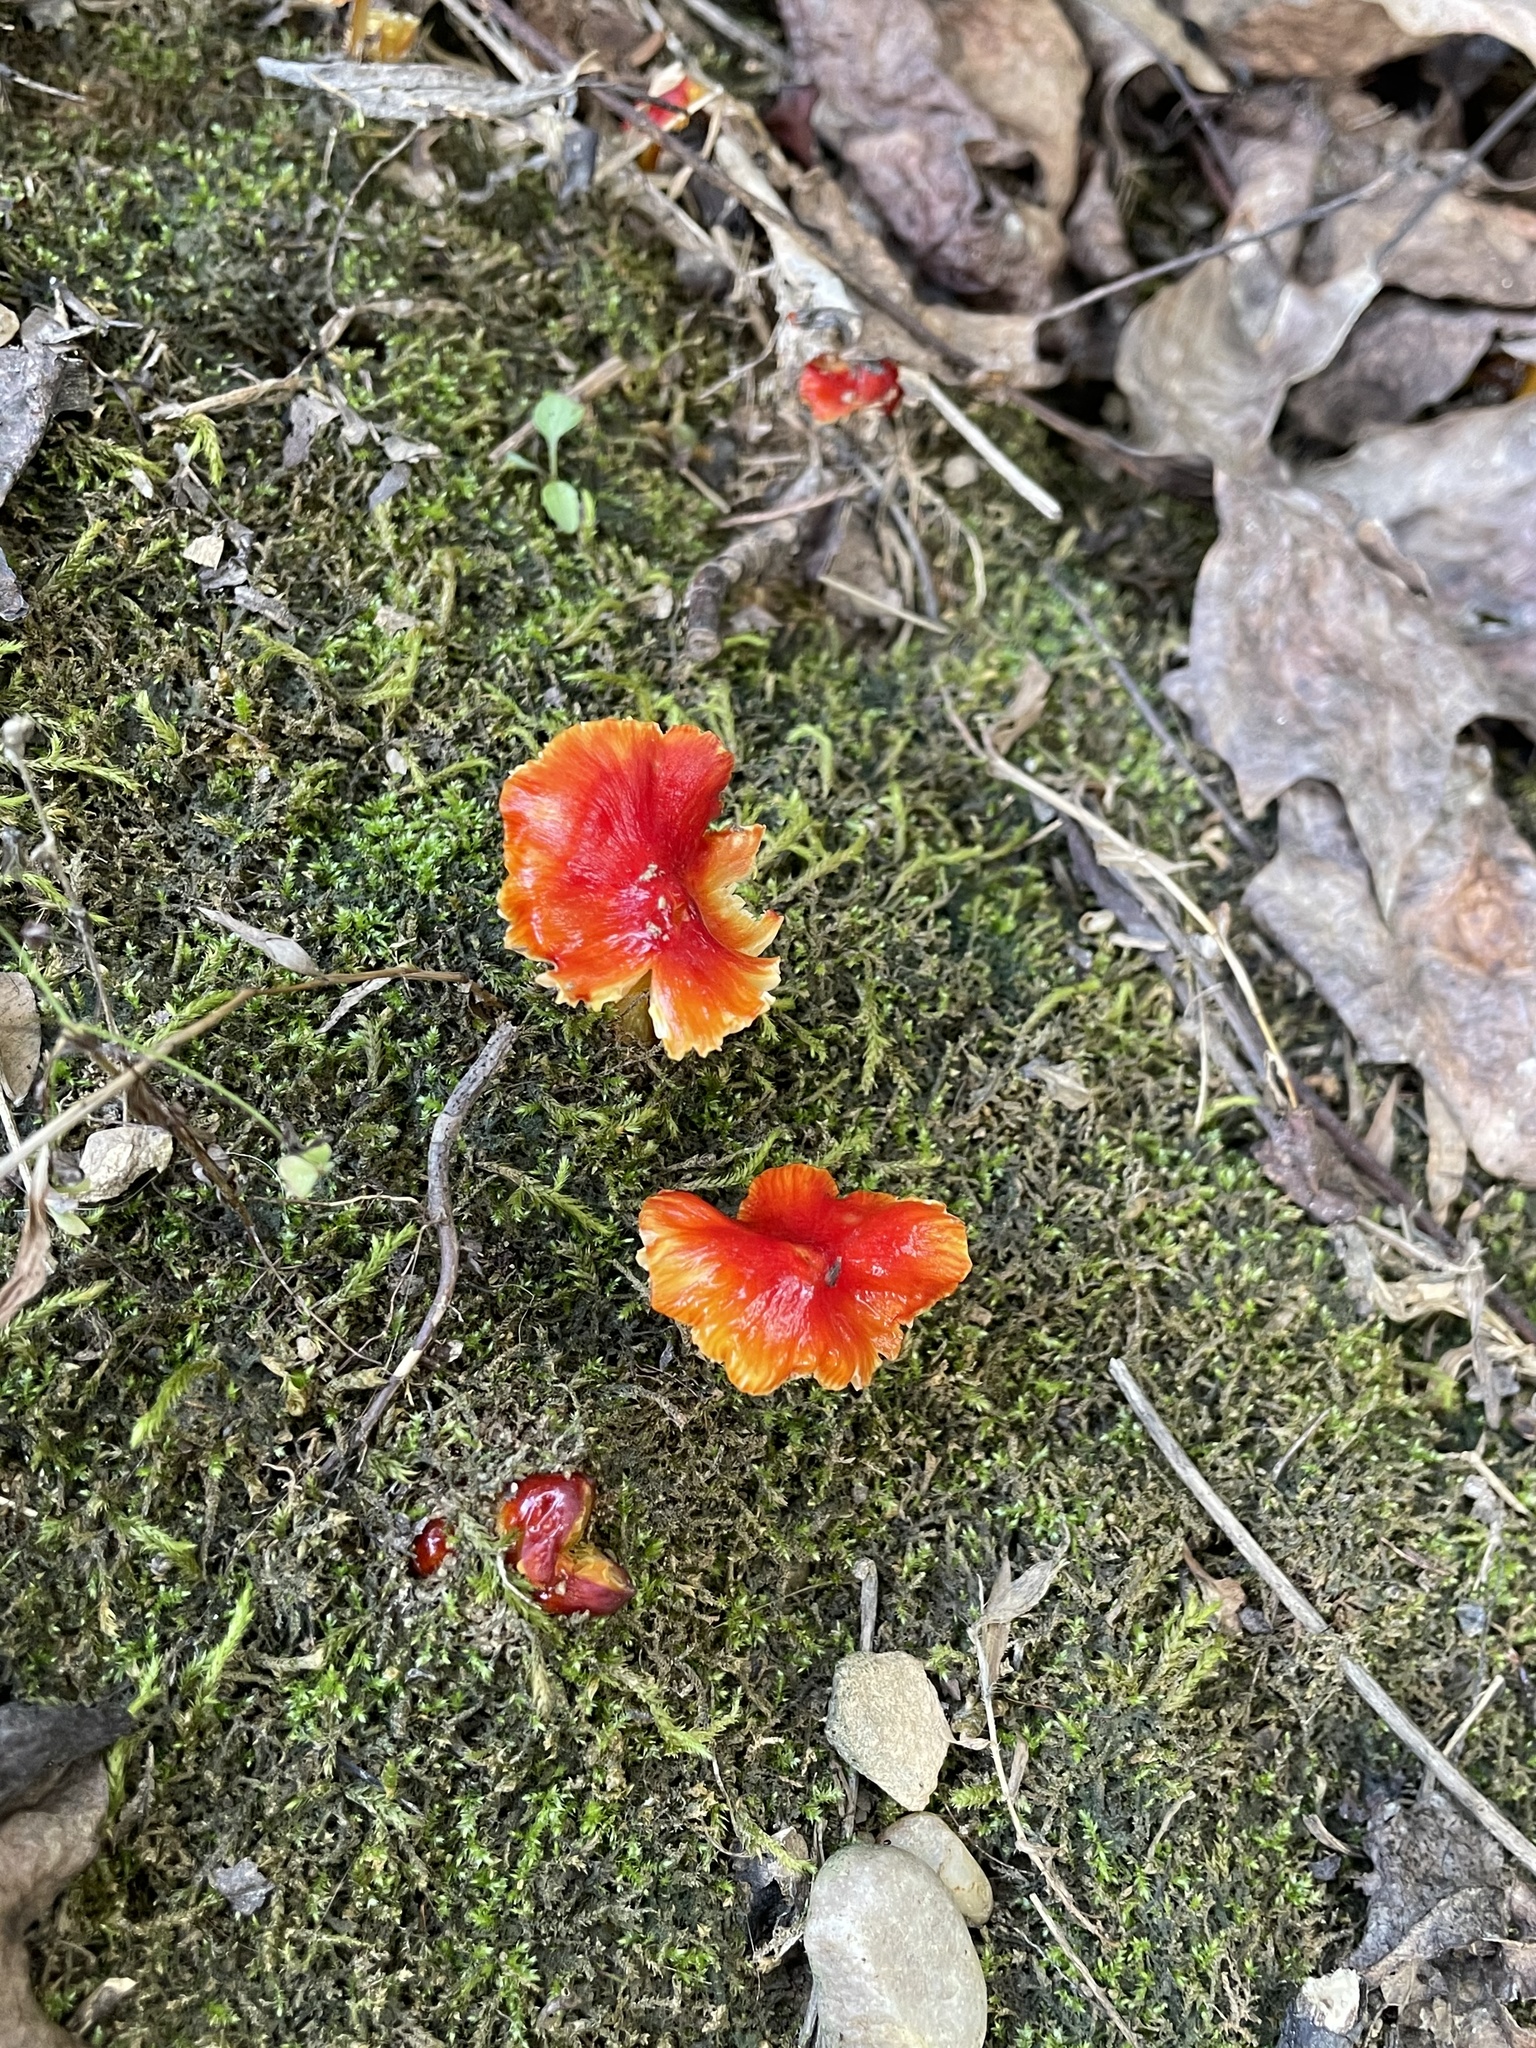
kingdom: Fungi
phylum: Basidiomycota
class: Agaricomycetes
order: Agaricales
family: Hygrophoraceae
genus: Hygrocybe
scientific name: Hygrocybe cuspidata
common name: Candy apple waxy cap
